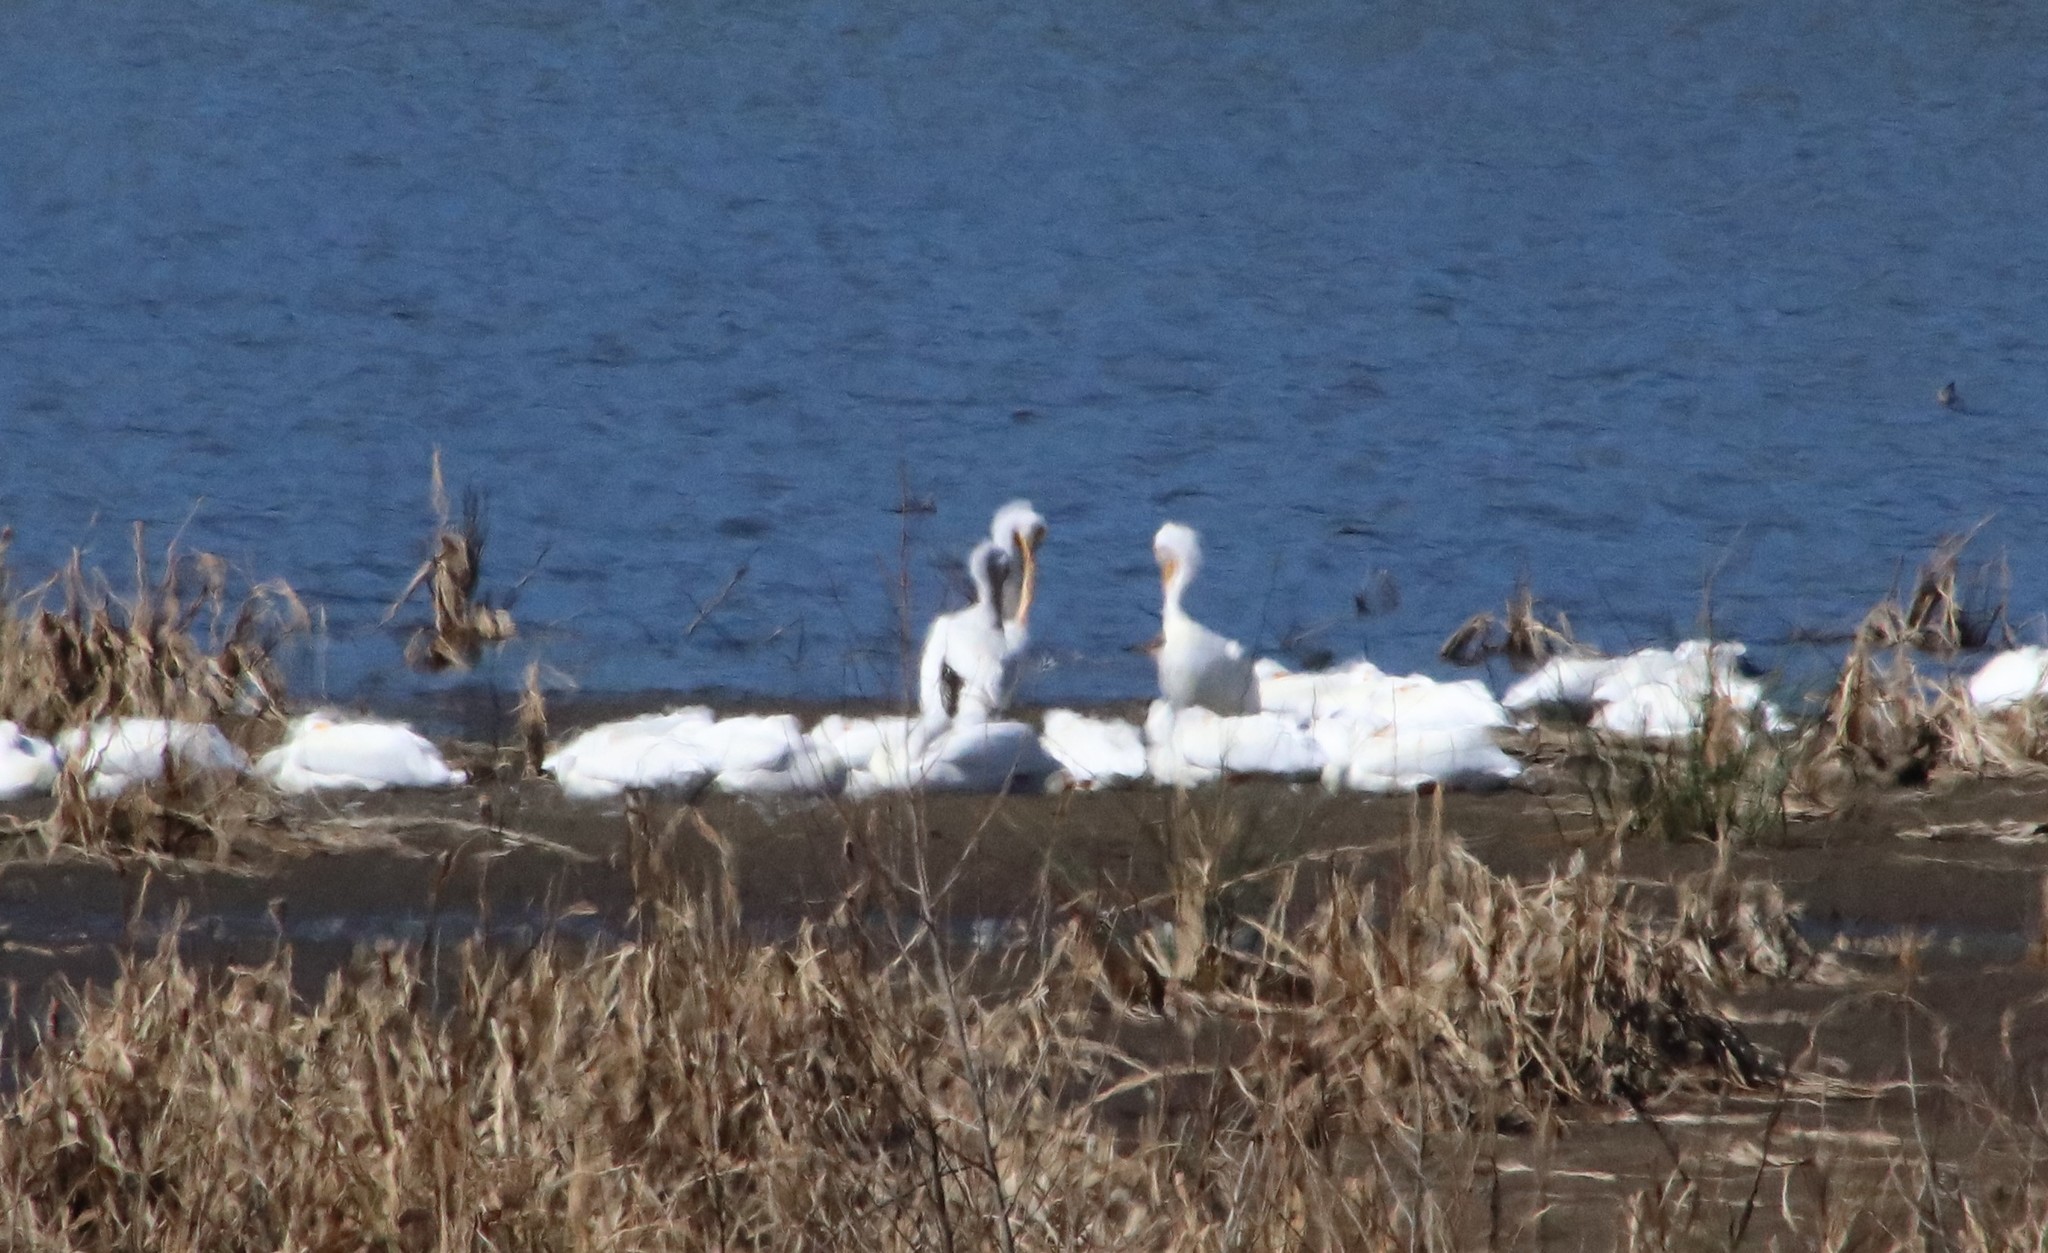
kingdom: Animalia
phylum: Chordata
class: Aves
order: Pelecaniformes
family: Pelecanidae
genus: Pelecanus
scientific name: Pelecanus erythrorhynchos
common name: American white pelican
